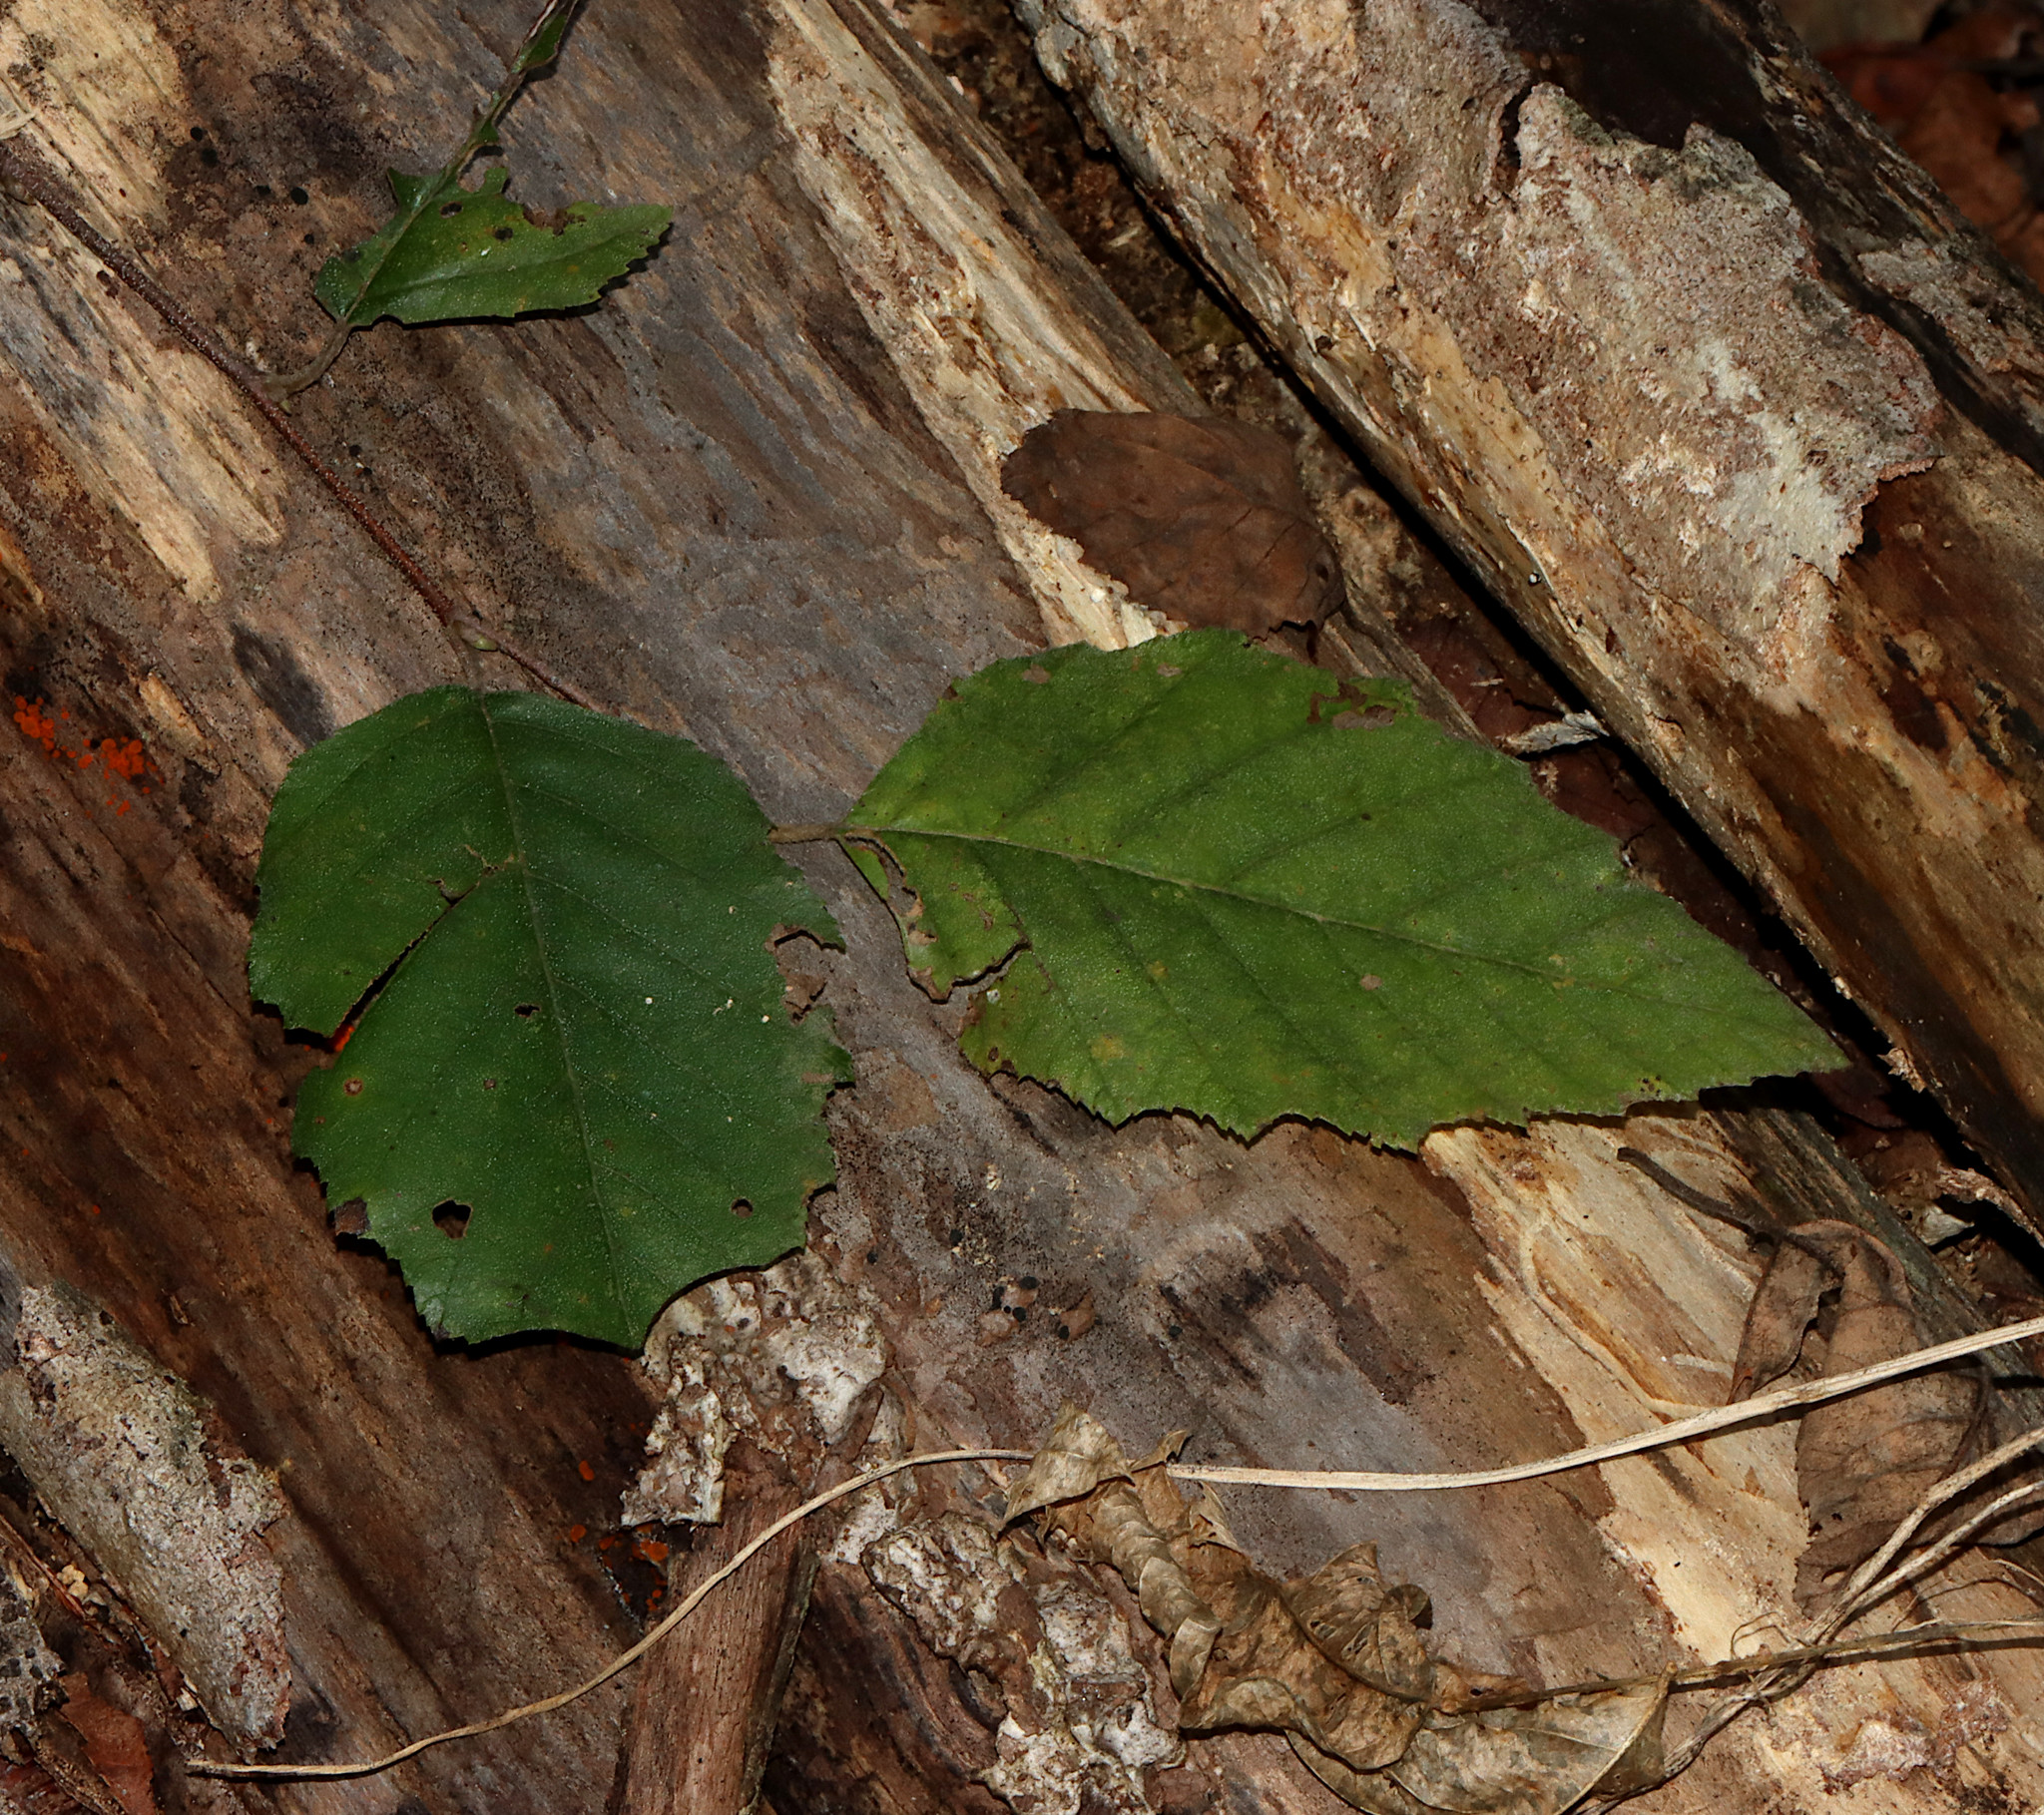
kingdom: Plantae
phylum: Tracheophyta
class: Magnoliopsida
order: Fagales
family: Betulaceae
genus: Betula
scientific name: Betula nigra
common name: Black birch
